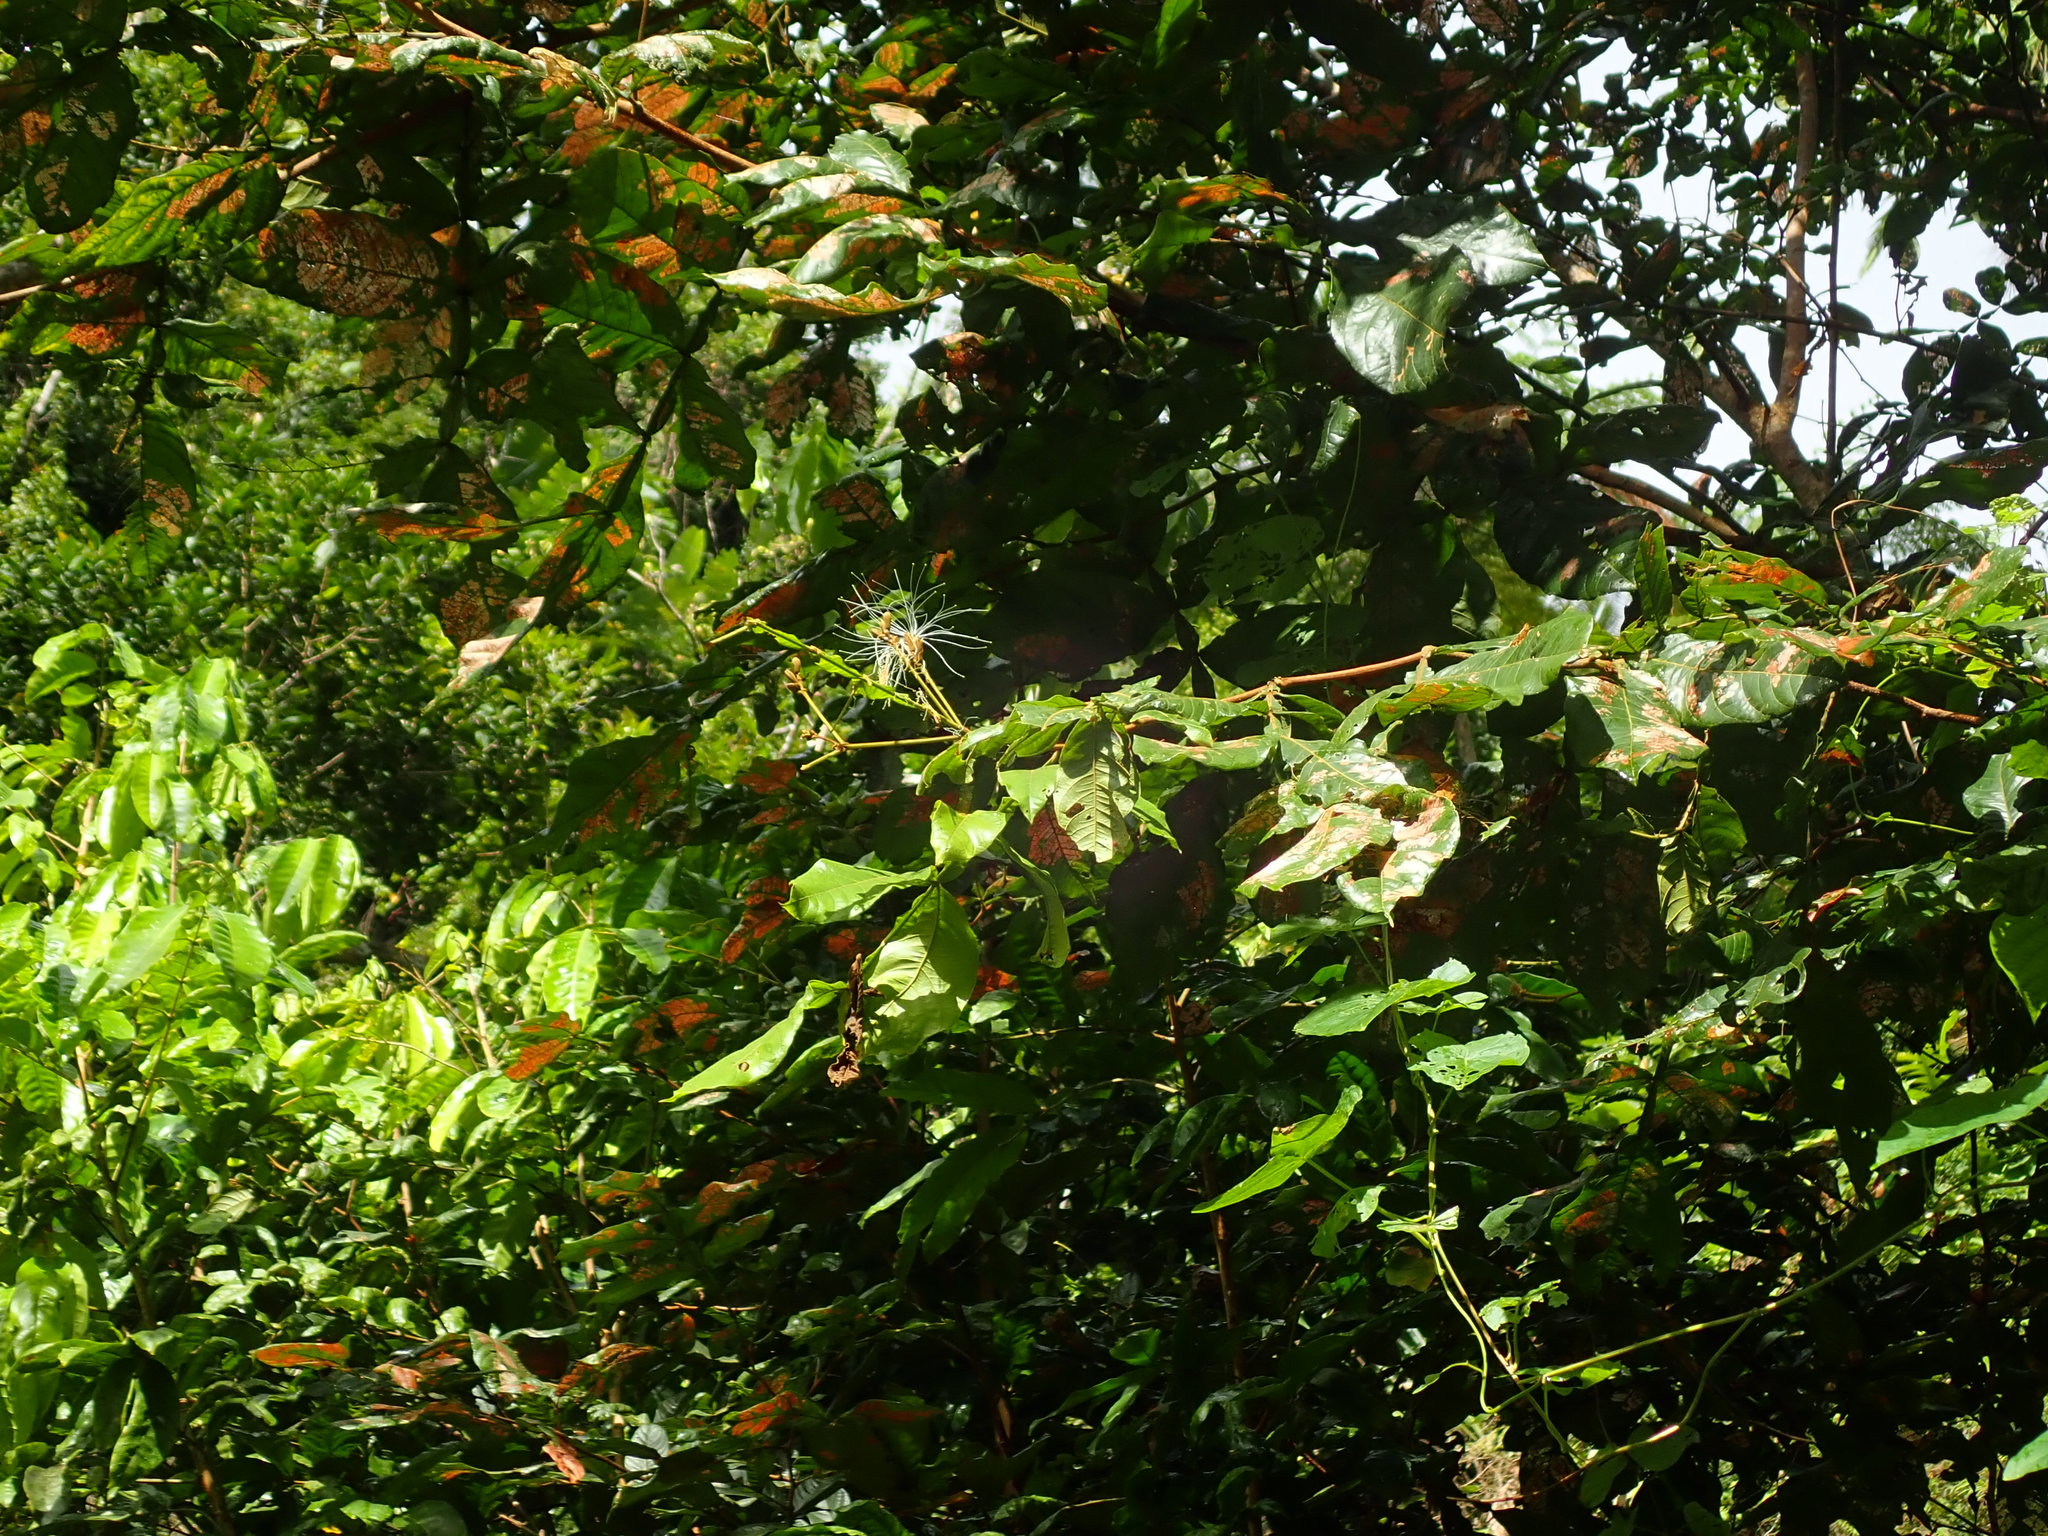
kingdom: Plantae
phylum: Tracheophyta
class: Magnoliopsida
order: Fabales
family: Fabaceae
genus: Inga
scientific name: Inga vera
